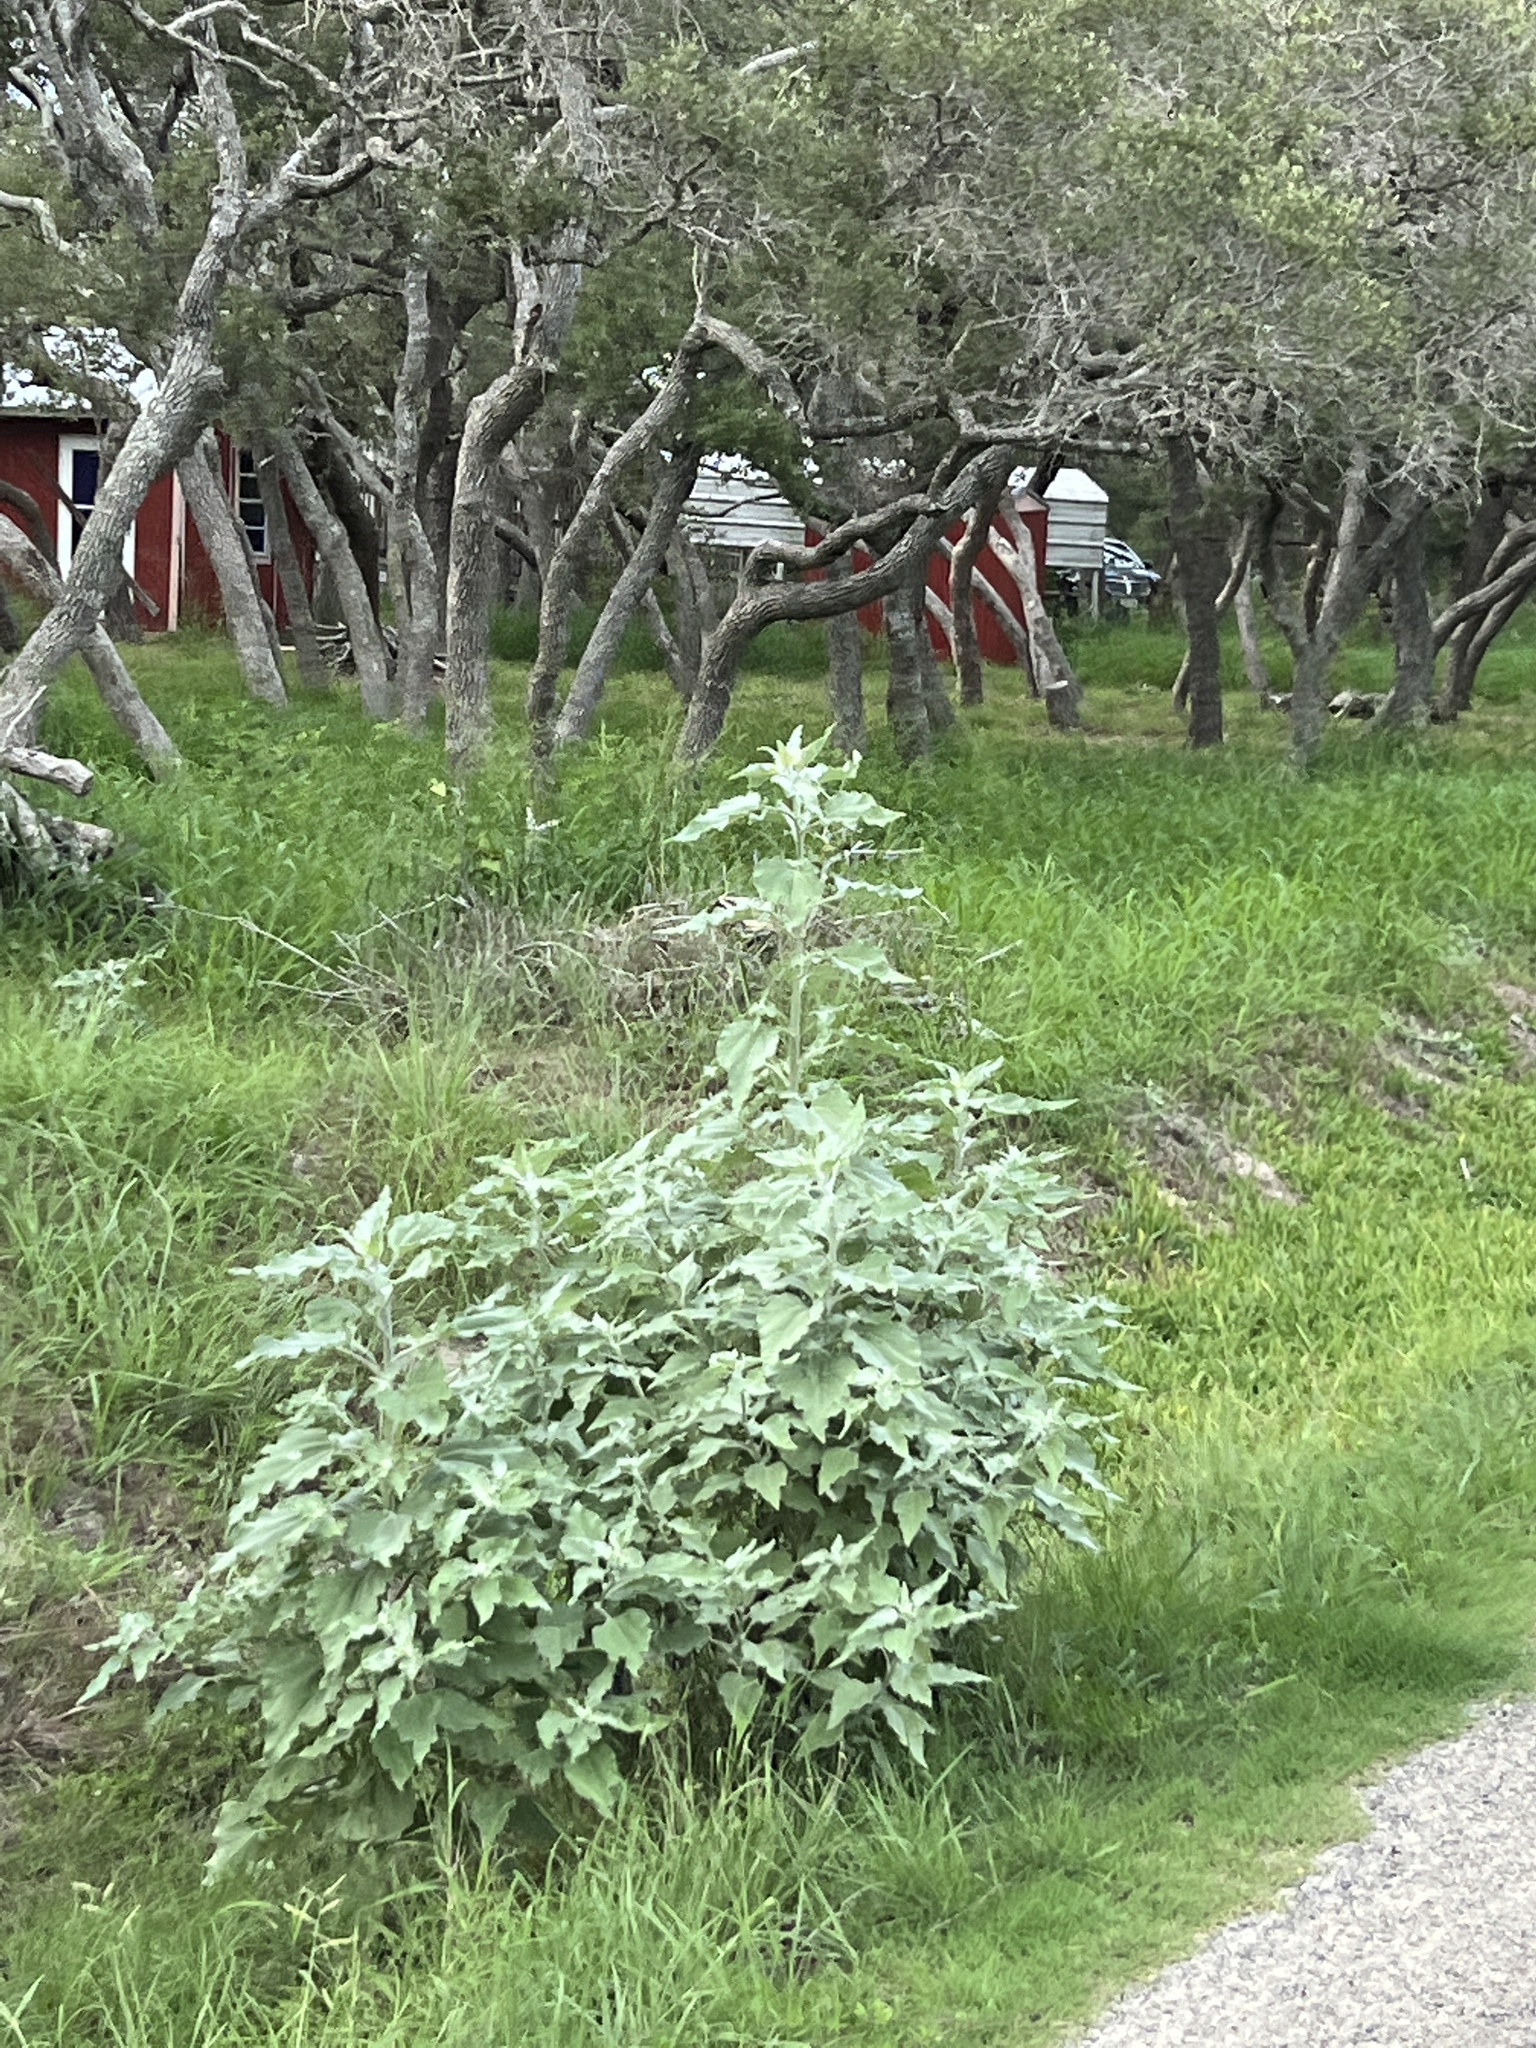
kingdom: Plantae
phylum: Tracheophyta
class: Magnoliopsida
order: Asterales
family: Asteraceae
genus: Helianthus
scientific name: Helianthus argophyllus
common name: Silverleaf sunflower
